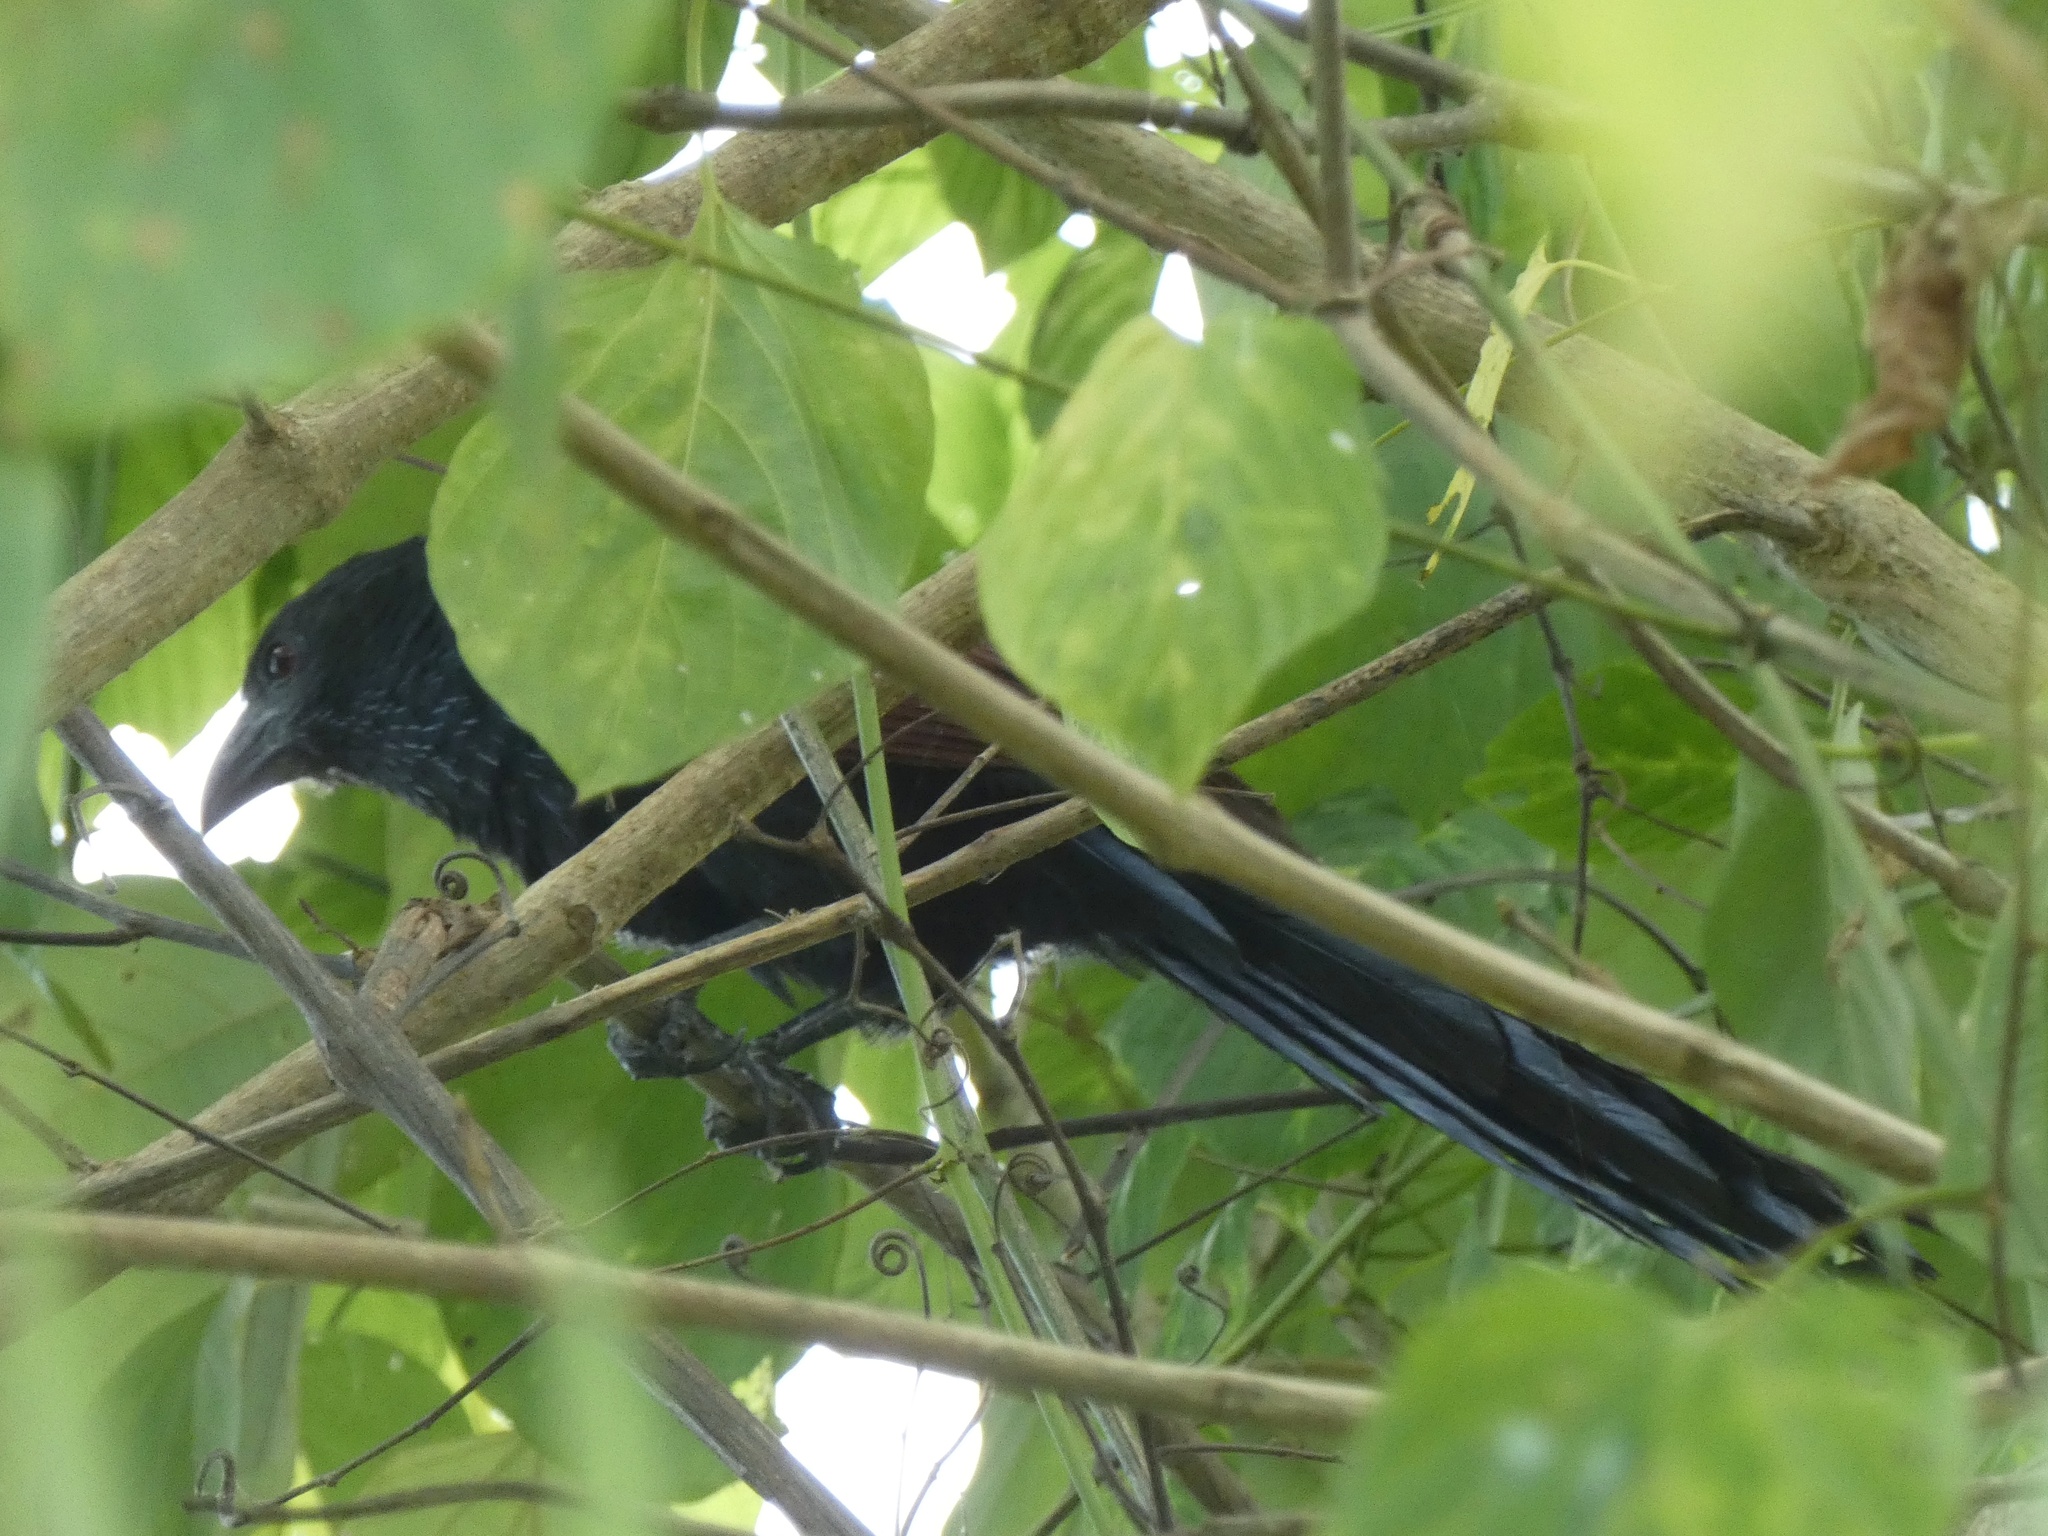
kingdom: Animalia
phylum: Chordata
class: Aves
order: Cuculiformes
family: Cuculidae
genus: Centropus
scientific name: Centropus viridis
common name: Philippine coucal
